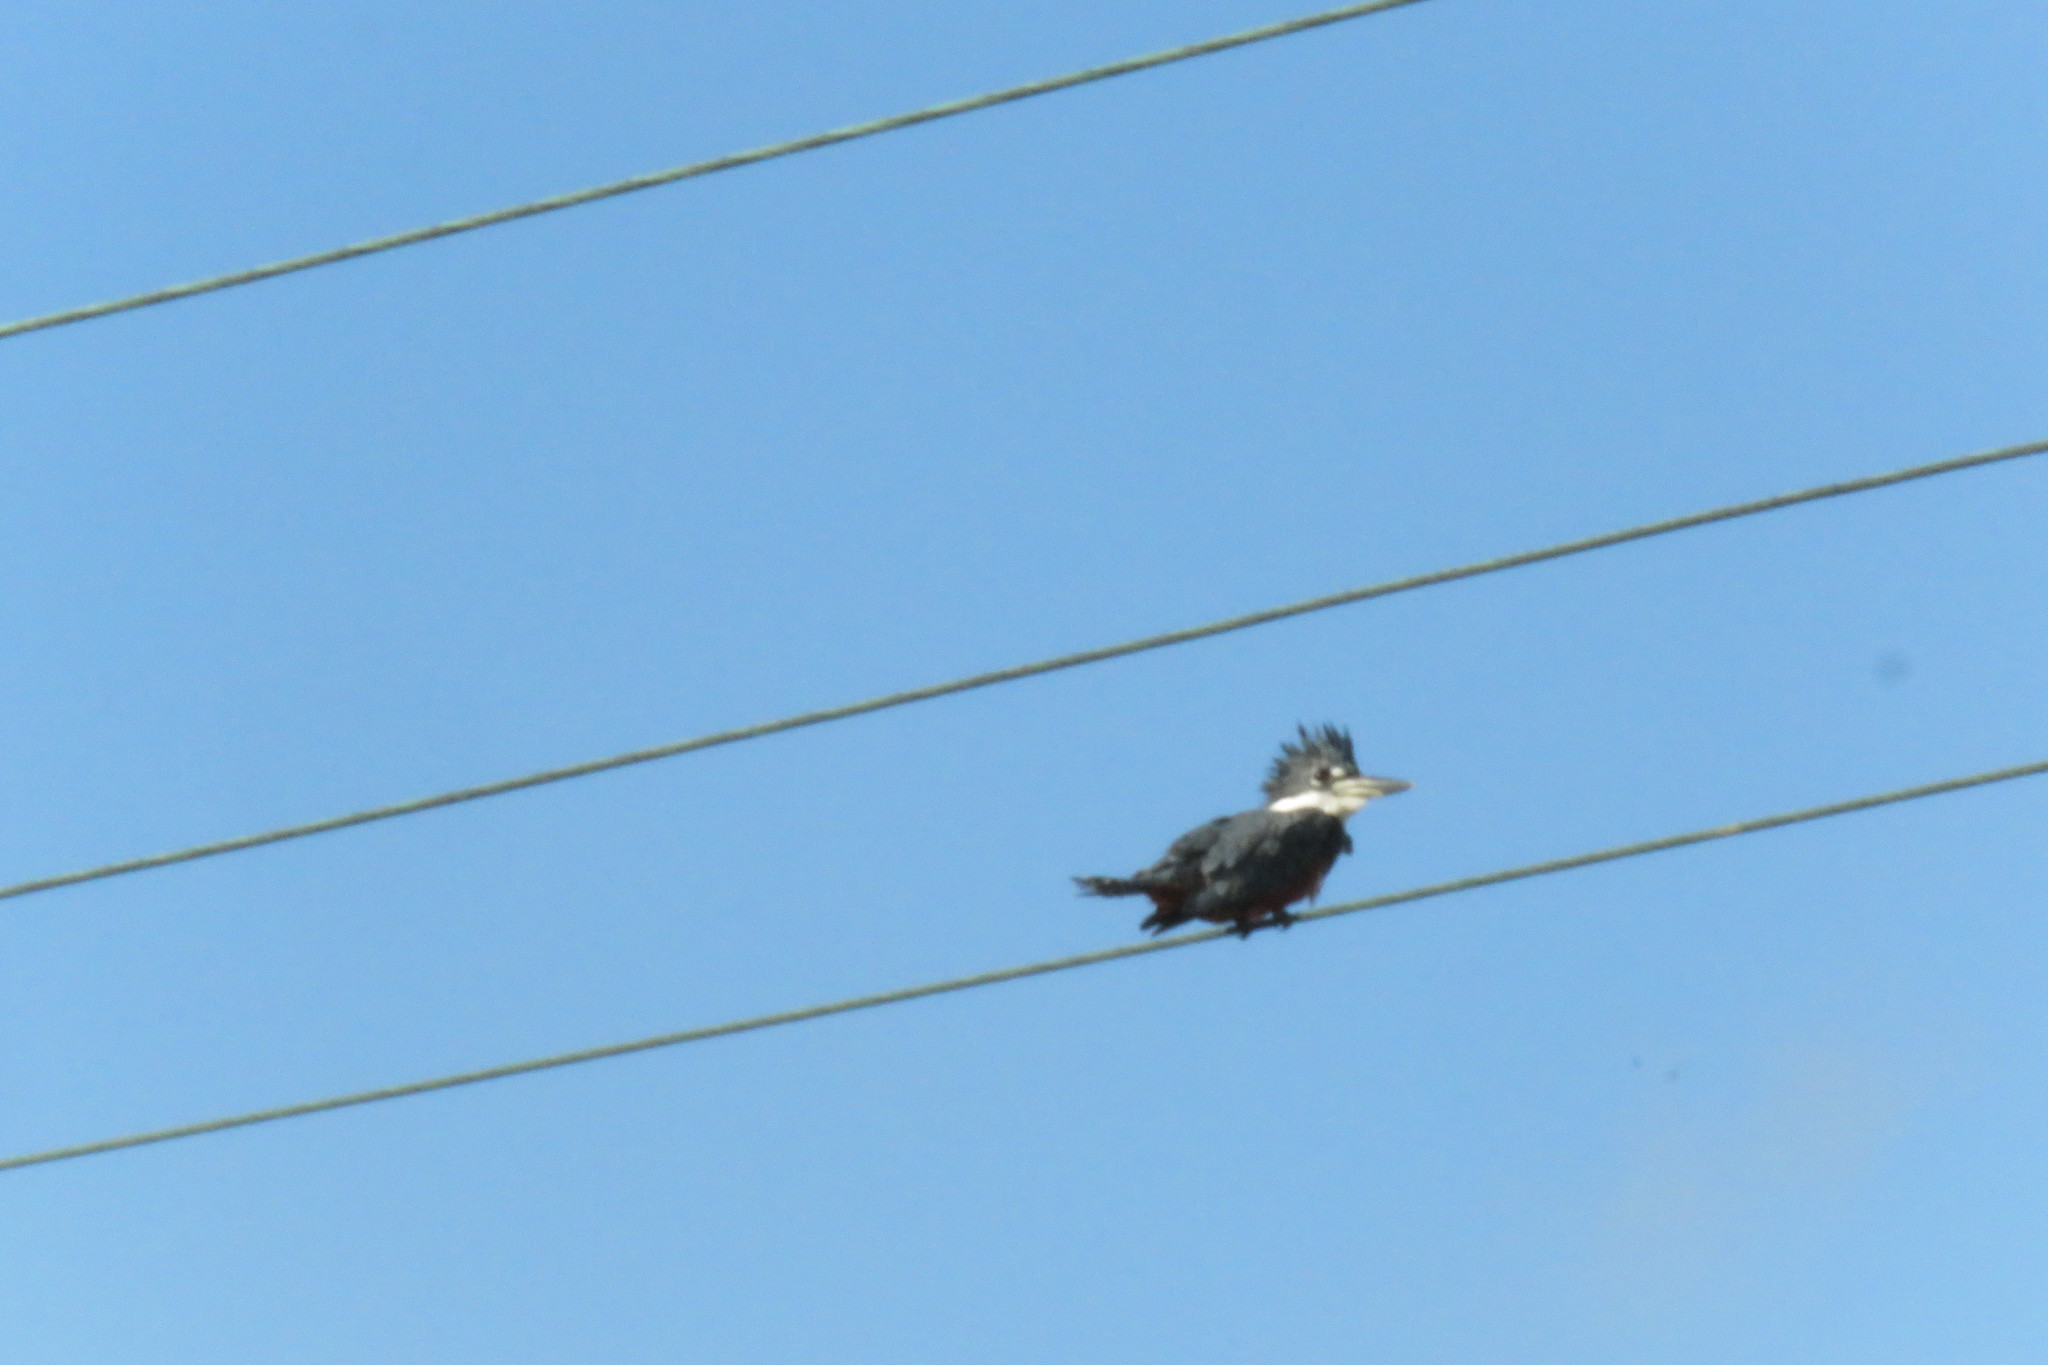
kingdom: Animalia
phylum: Chordata
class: Aves
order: Coraciiformes
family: Alcedinidae
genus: Megaceryle
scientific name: Megaceryle torquata
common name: Ringed kingfisher
